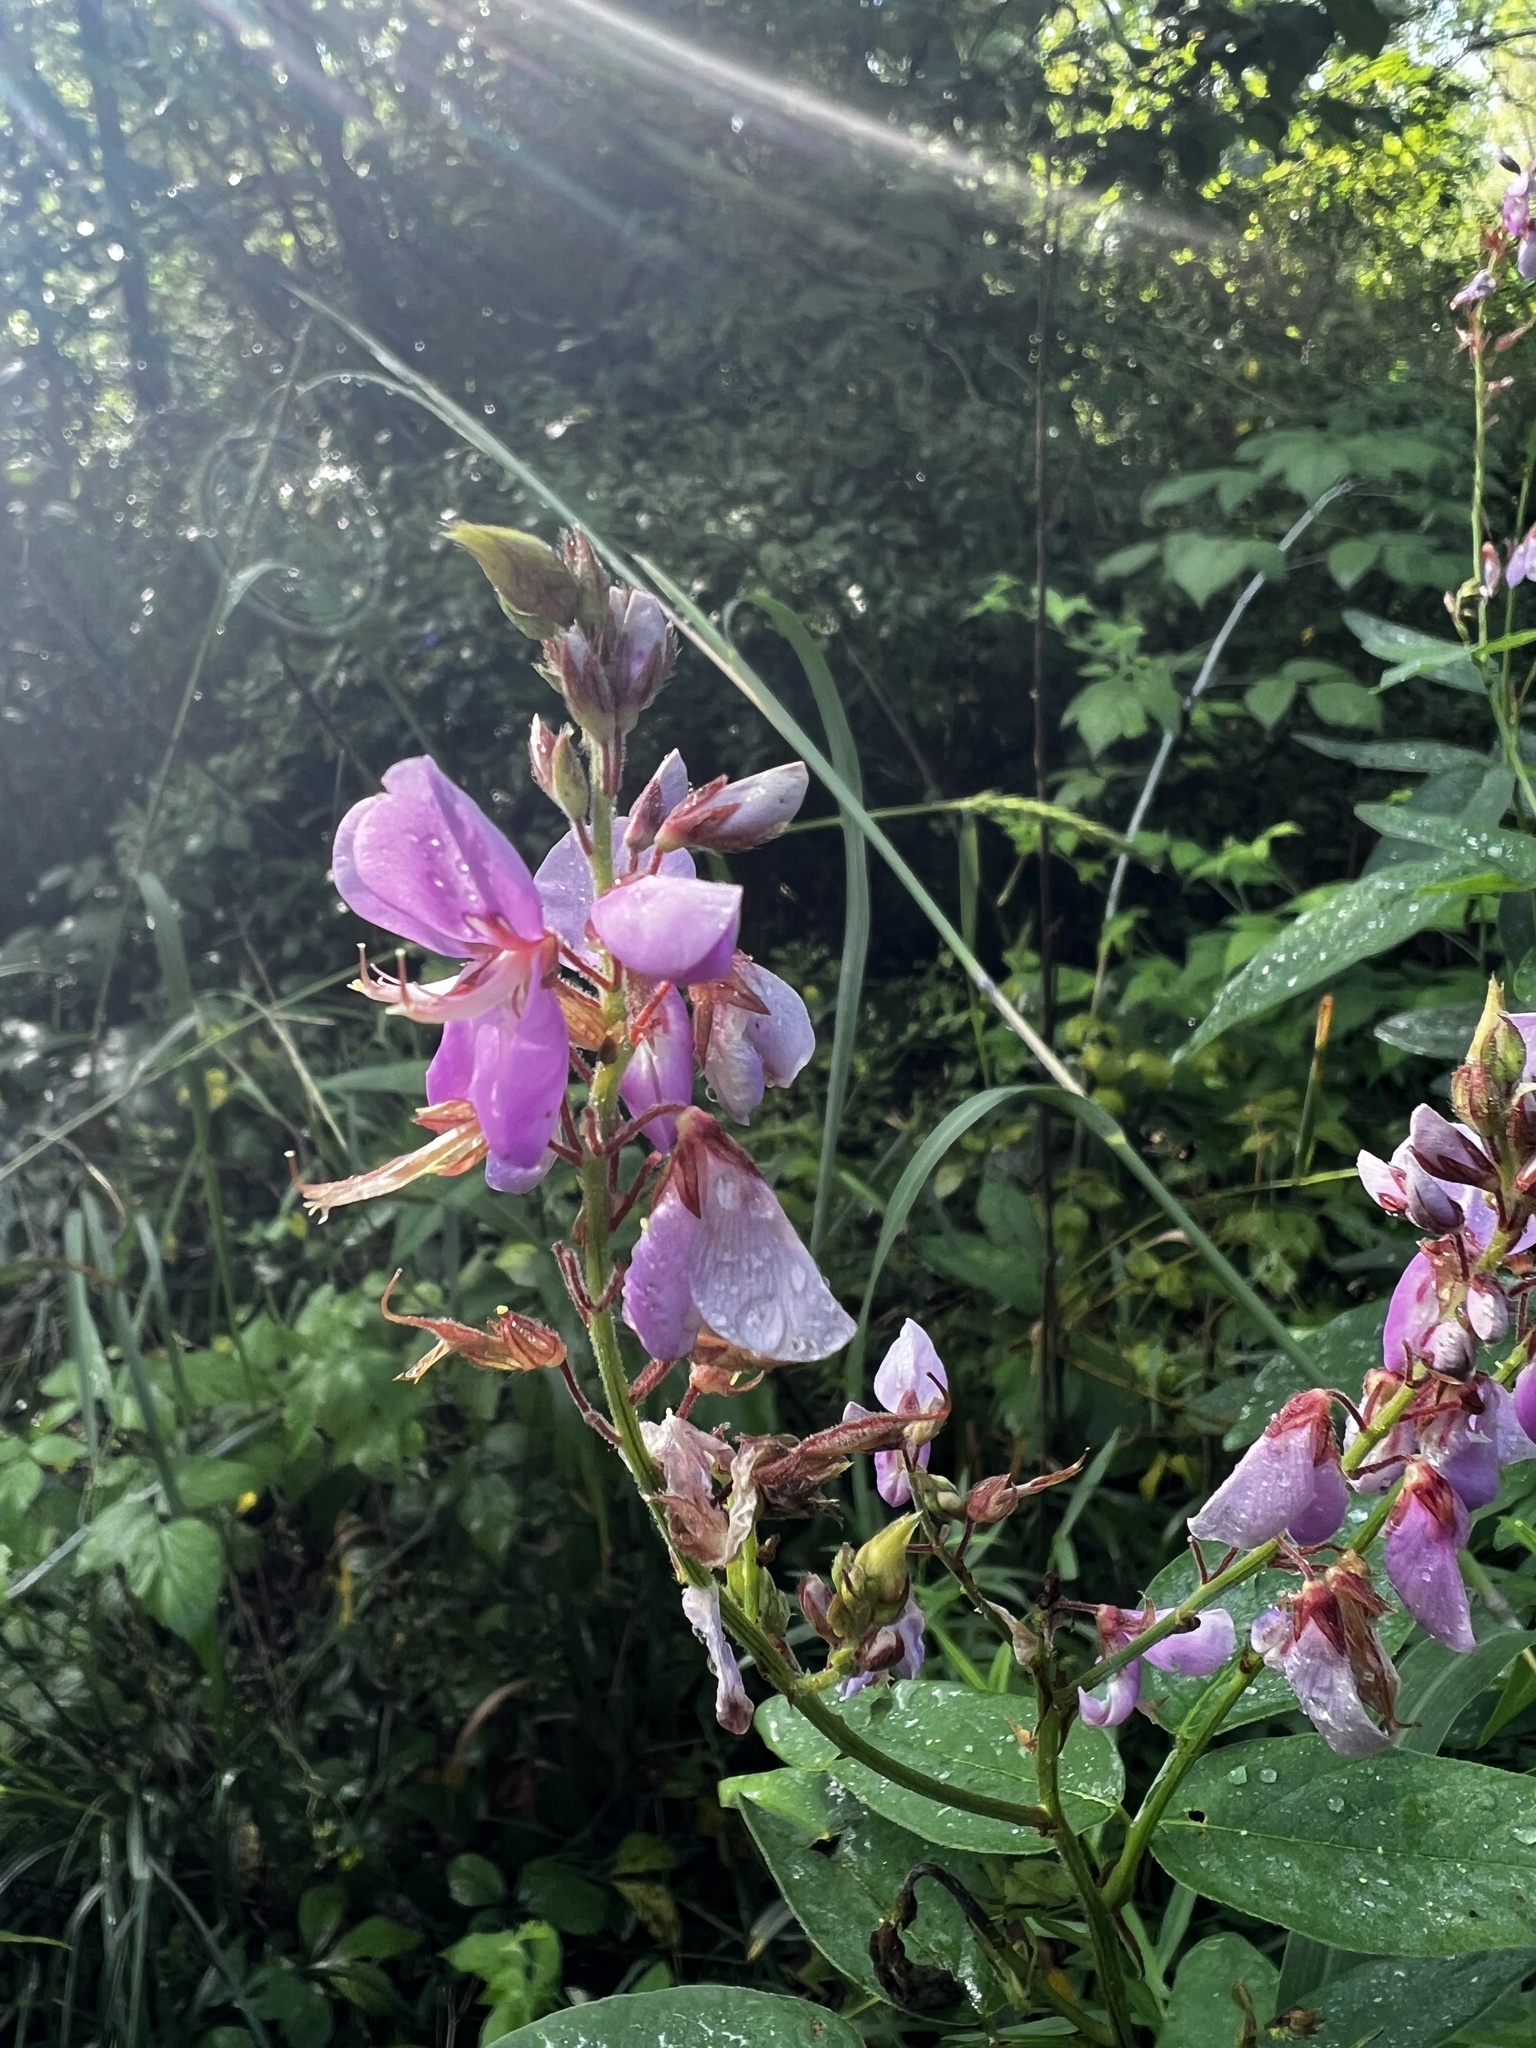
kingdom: Plantae
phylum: Tracheophyta
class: Magnoliopsida
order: Fabales
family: Fabaceae
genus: Desmodium
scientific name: Desmodium canadense
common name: Canada tick-trefoil
